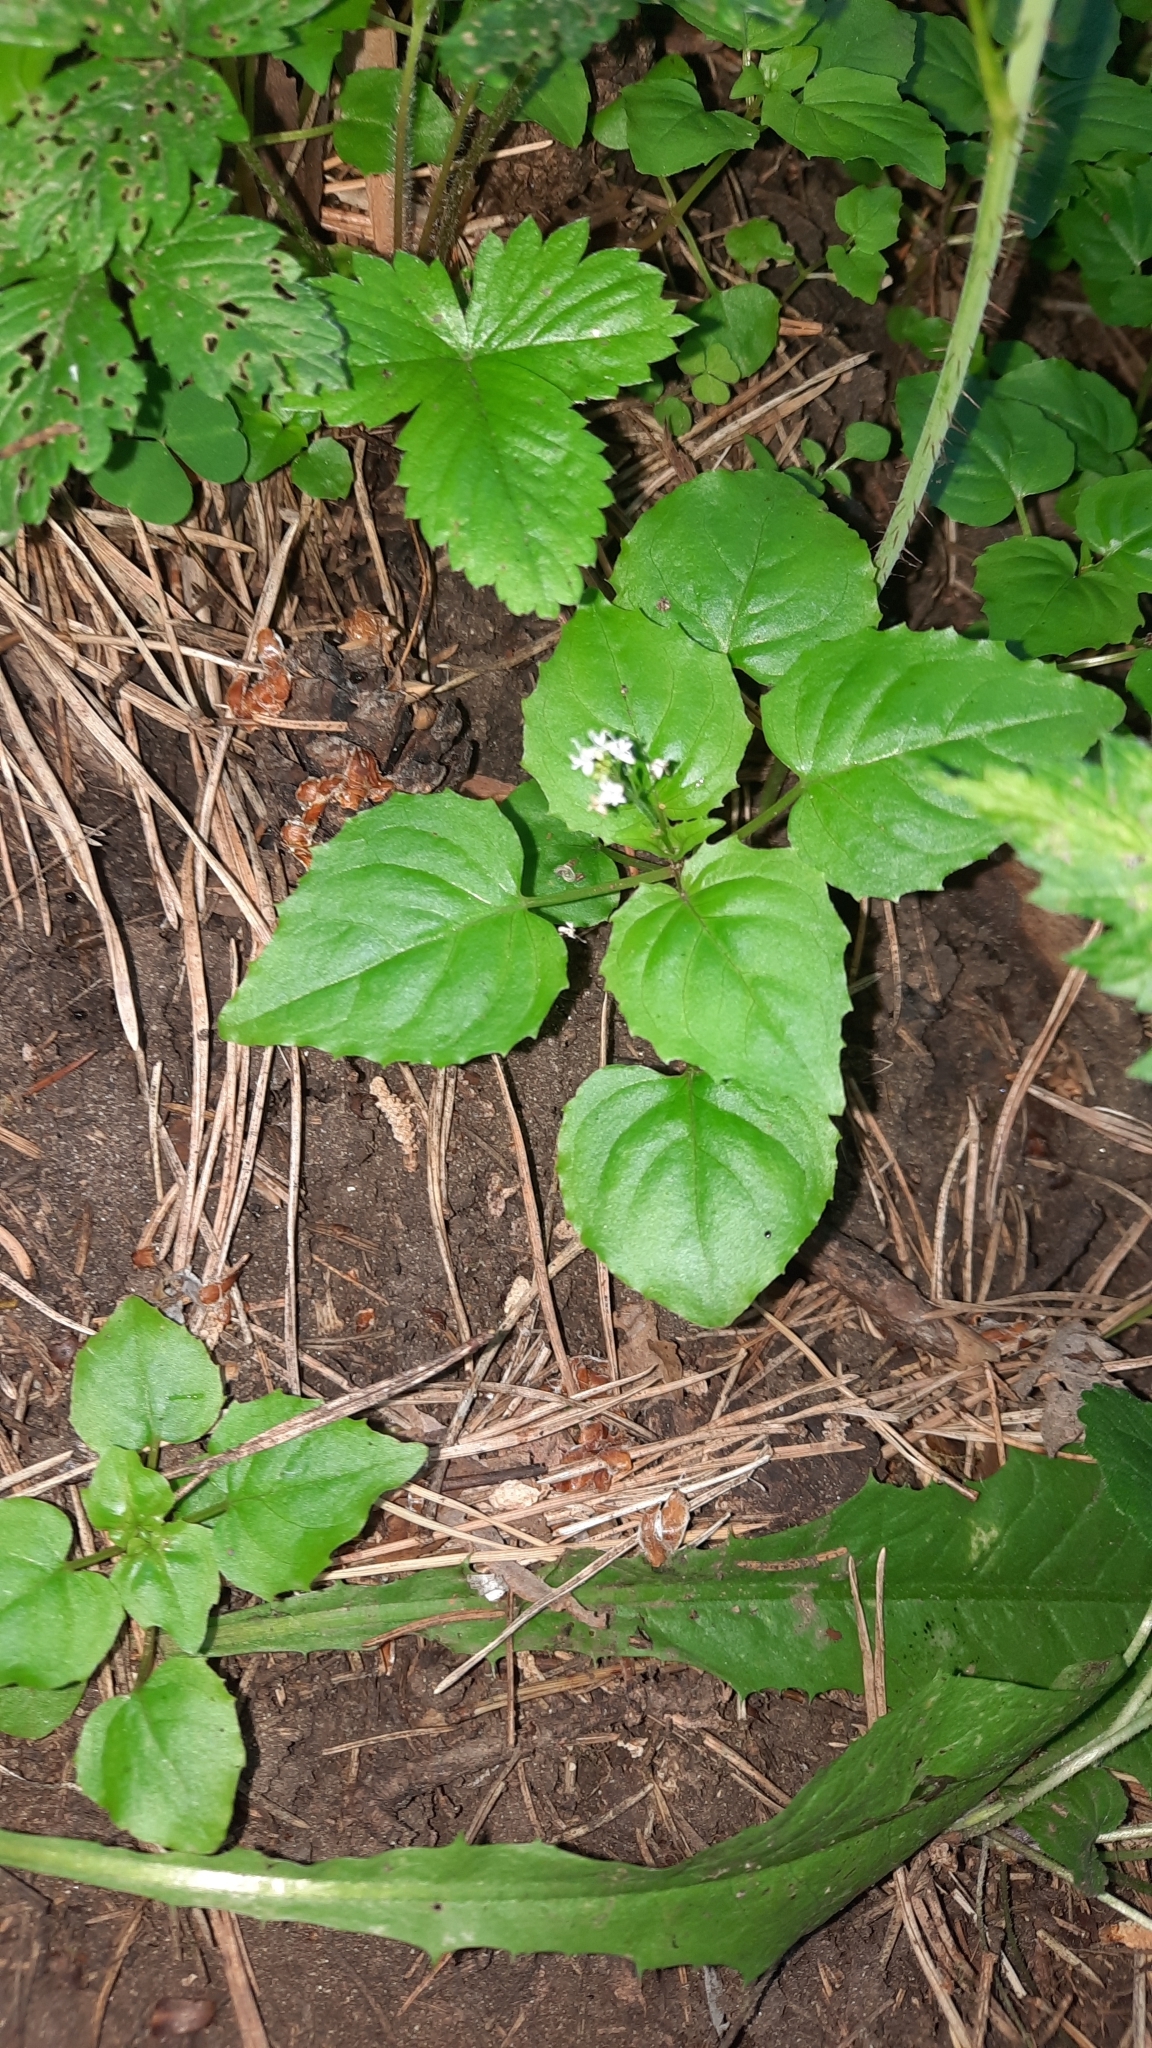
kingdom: Plantae
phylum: Tracheophyta
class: Magnoliopsida
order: Myrtales
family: Onagraceae
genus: Circaea
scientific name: Circaea alpina
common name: Alpine enchanter's-nightshade
